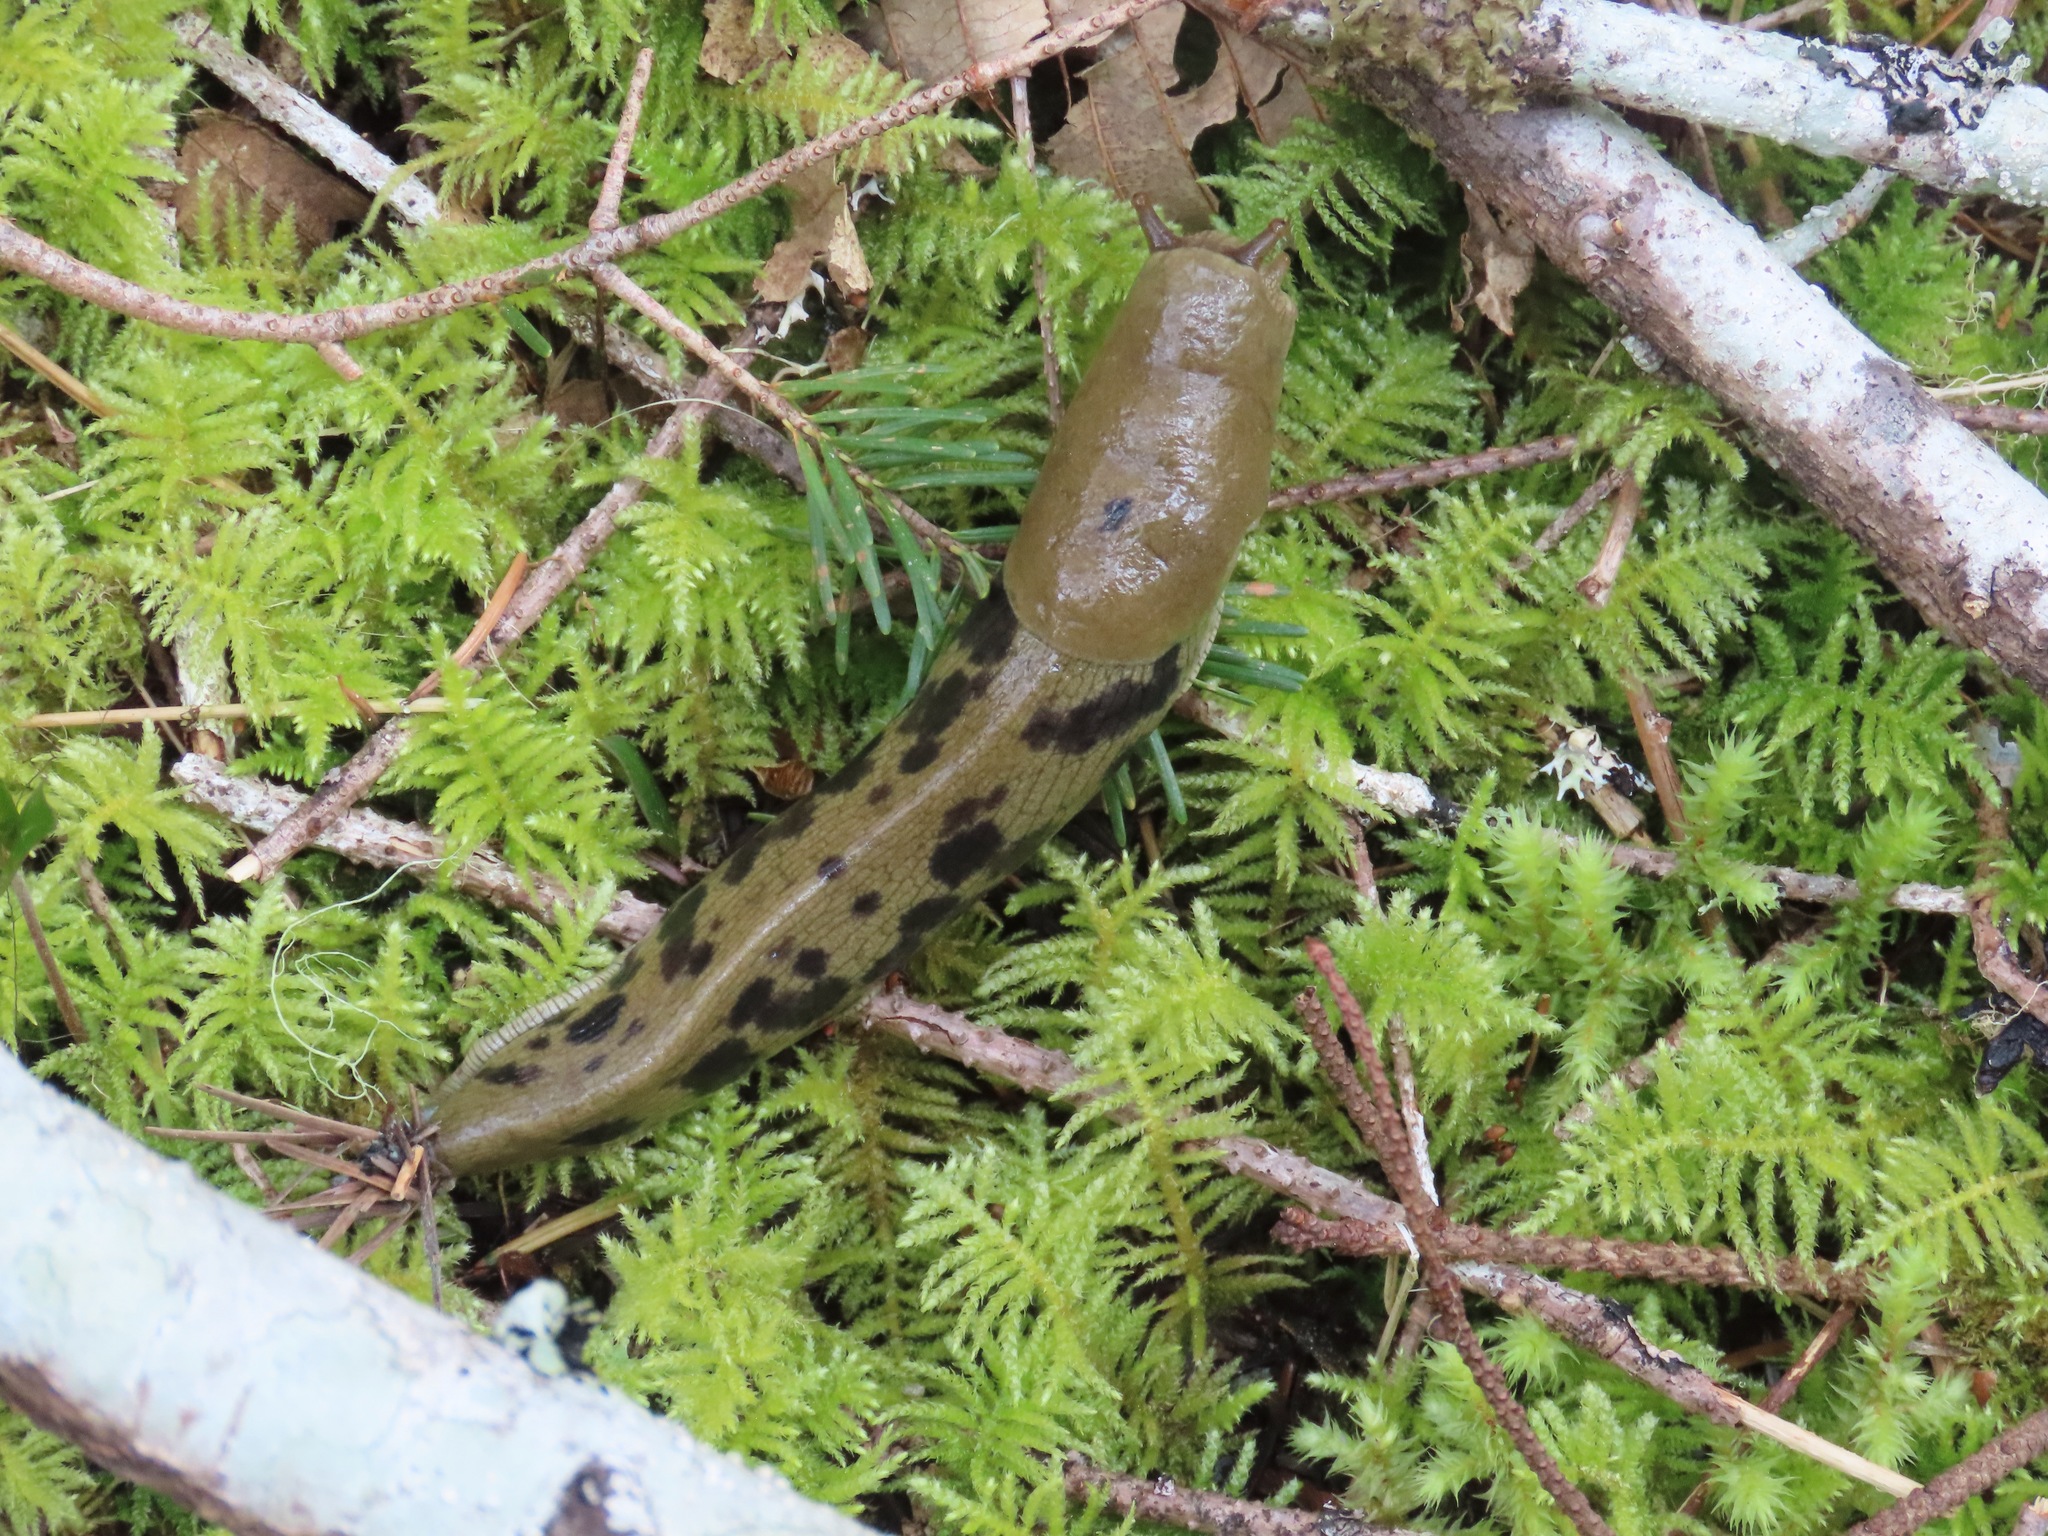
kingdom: Animalia
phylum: Mollusca
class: Gastropoda
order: Stylommatophora
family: Ariolimacidae
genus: Ariolimax
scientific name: Ariolimax columbianus
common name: Pacific banana slug
